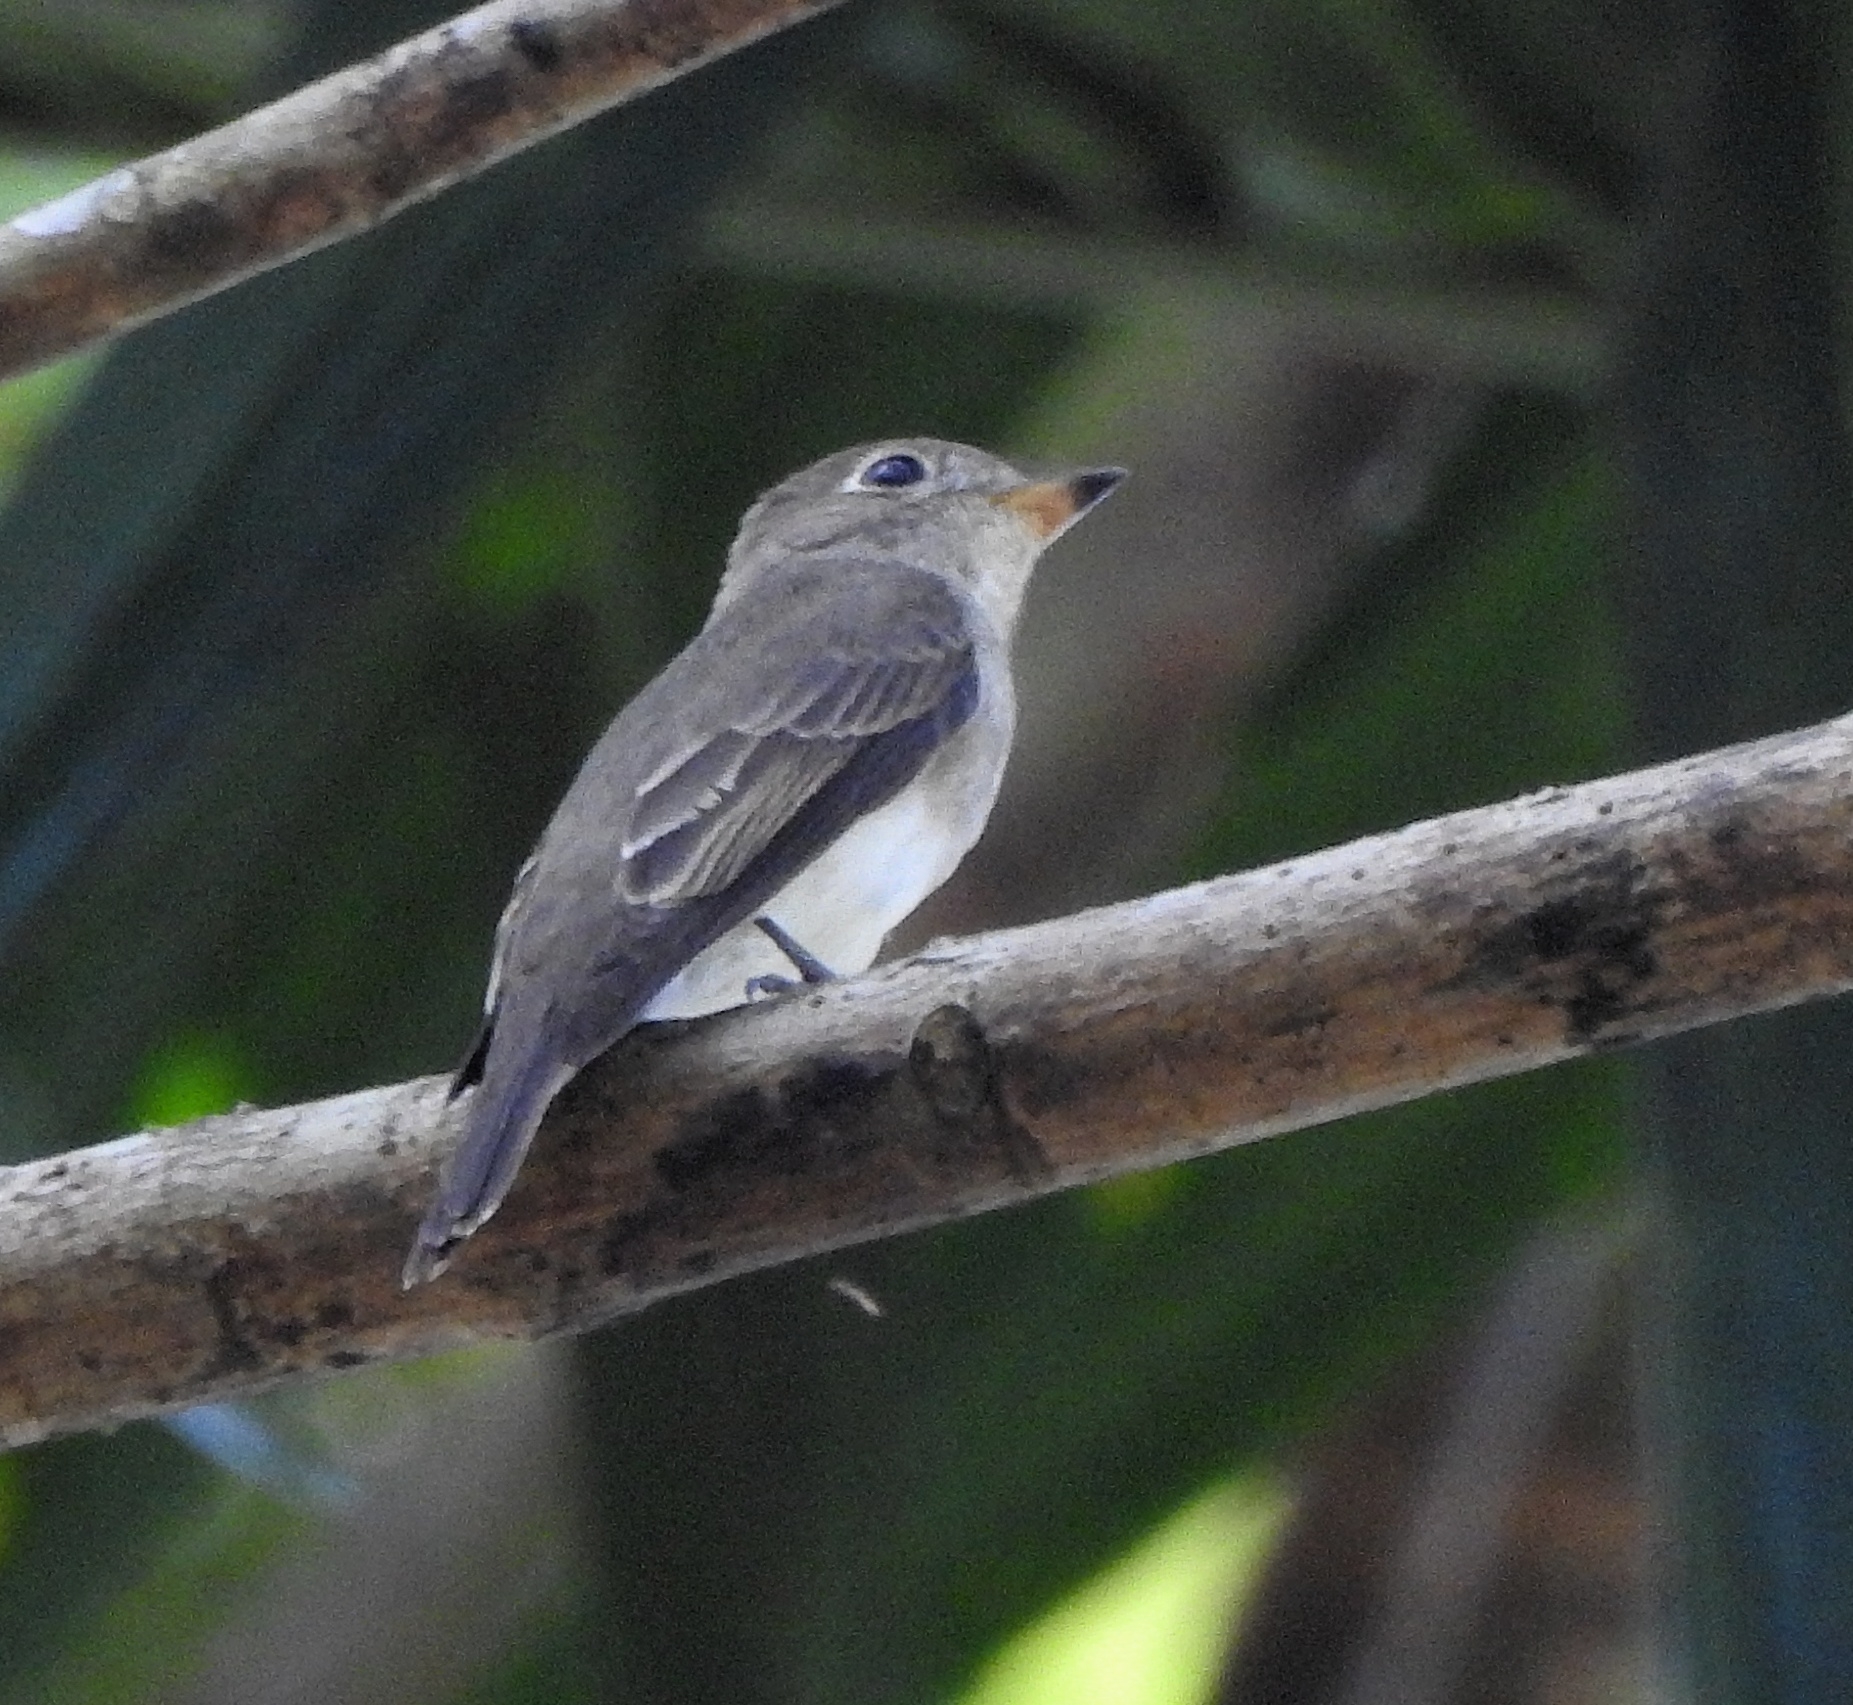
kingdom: Animalia
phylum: Chordata
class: Aves
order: Passeriformes
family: Muscicapidae
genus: Muscicapa
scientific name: Muscicapa latirostris
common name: Asian brown flycatcher
